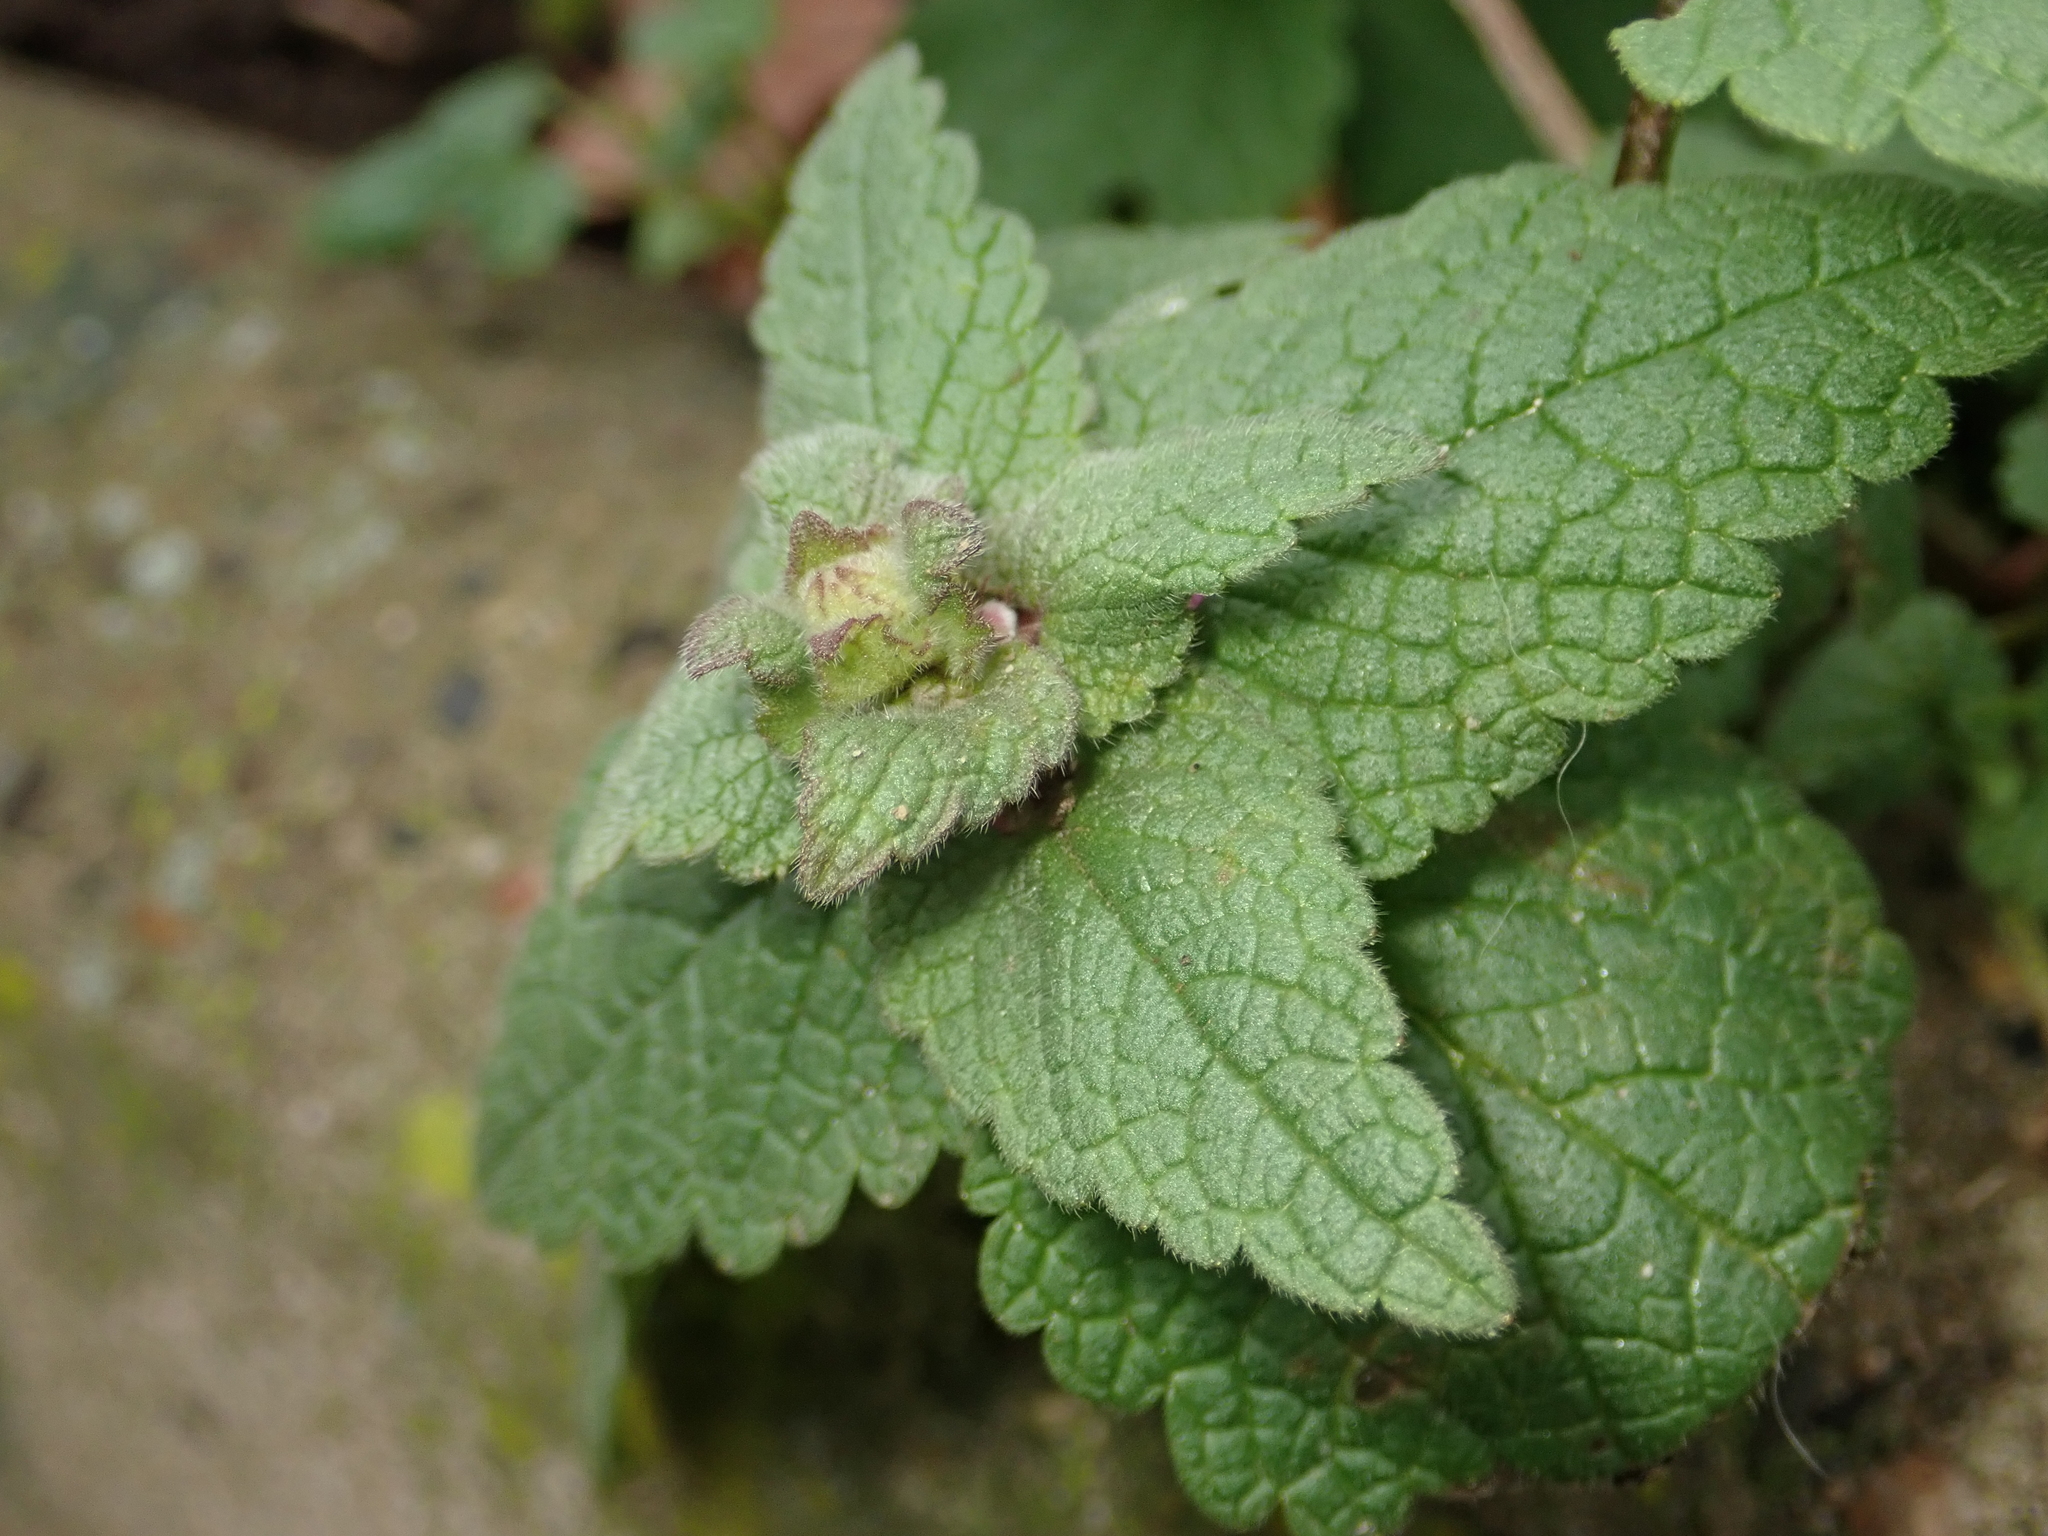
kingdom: Plantae
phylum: Tracheophyta
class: Magnoliopsida
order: Lamiales
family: Lamiaceae
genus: Lamium
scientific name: Lamium purpureum
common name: Red dead-nettle
